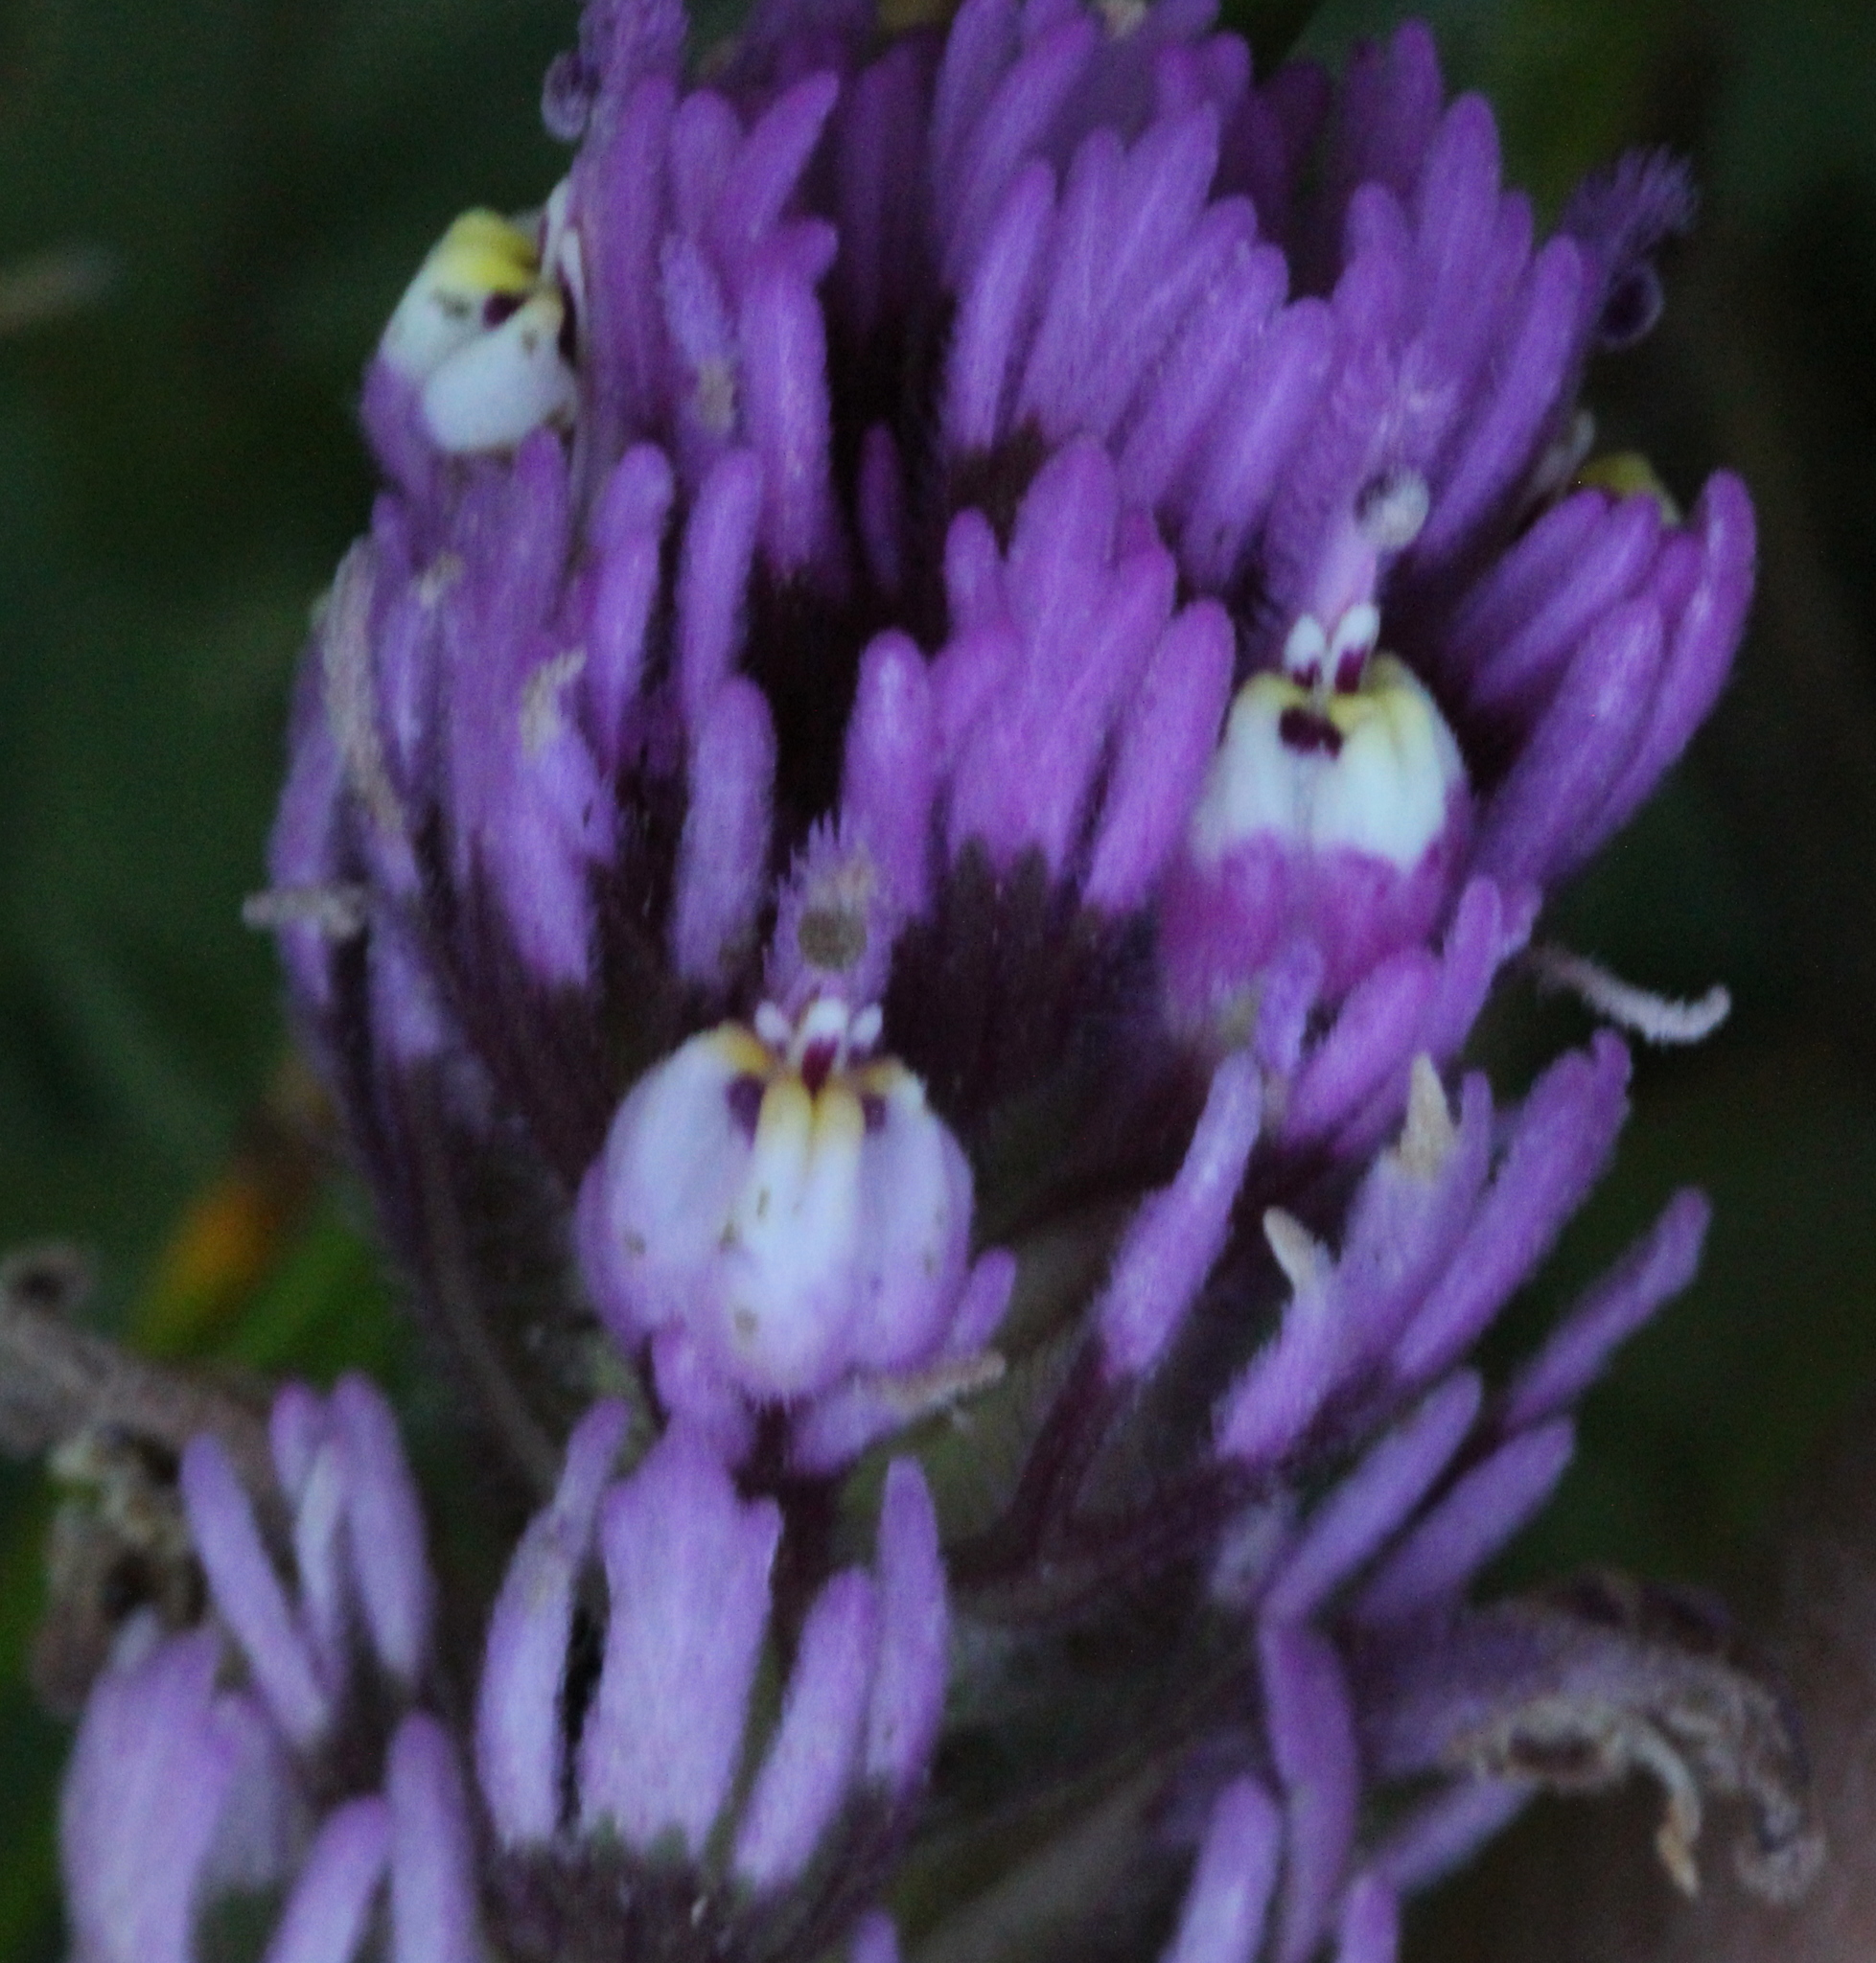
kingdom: Plantae
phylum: Tracheophyta
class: Magnoliopsida
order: Lamiales
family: Orobanchaceae
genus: Castilleja
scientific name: Castilleja exserta
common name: Purple owl-clover
